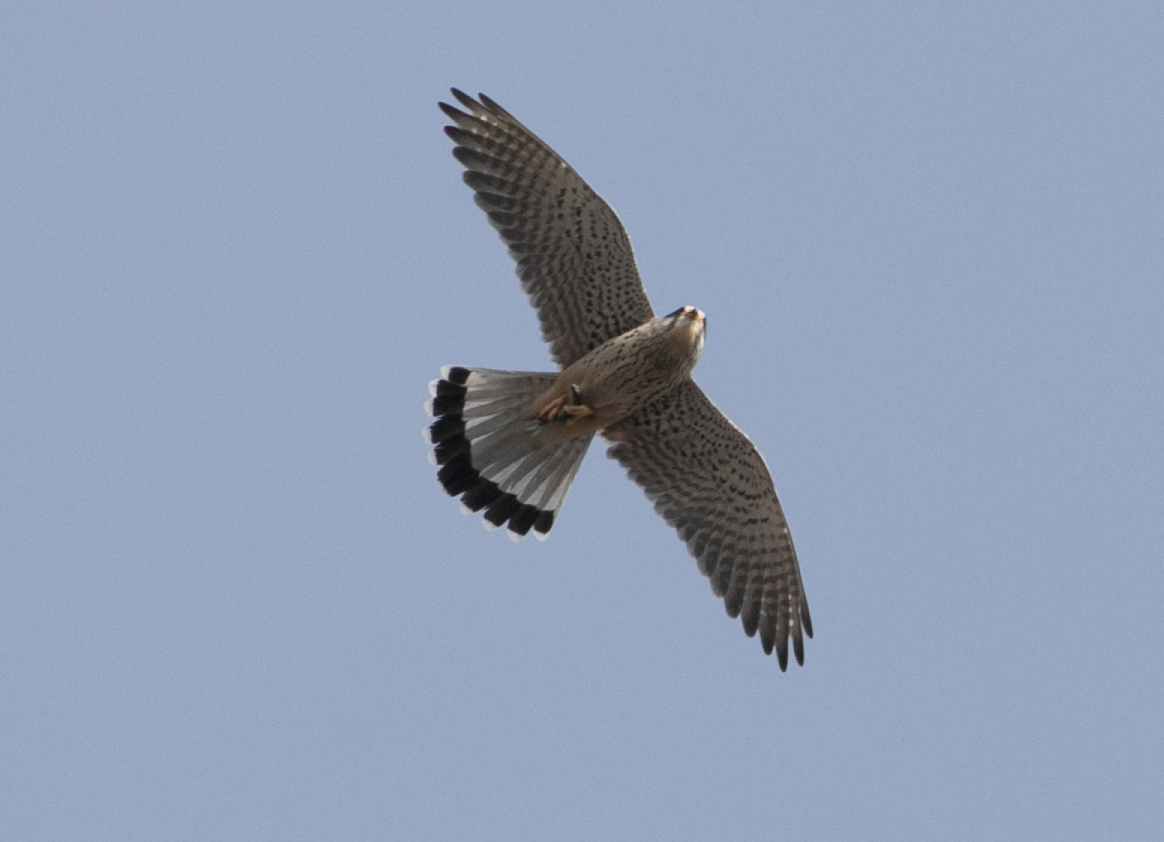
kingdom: Animalia
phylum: Chordata
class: Aves
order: Falconiformes
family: Falconidae
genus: Falco
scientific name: Falco tinnunculus
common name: Common kestrel
